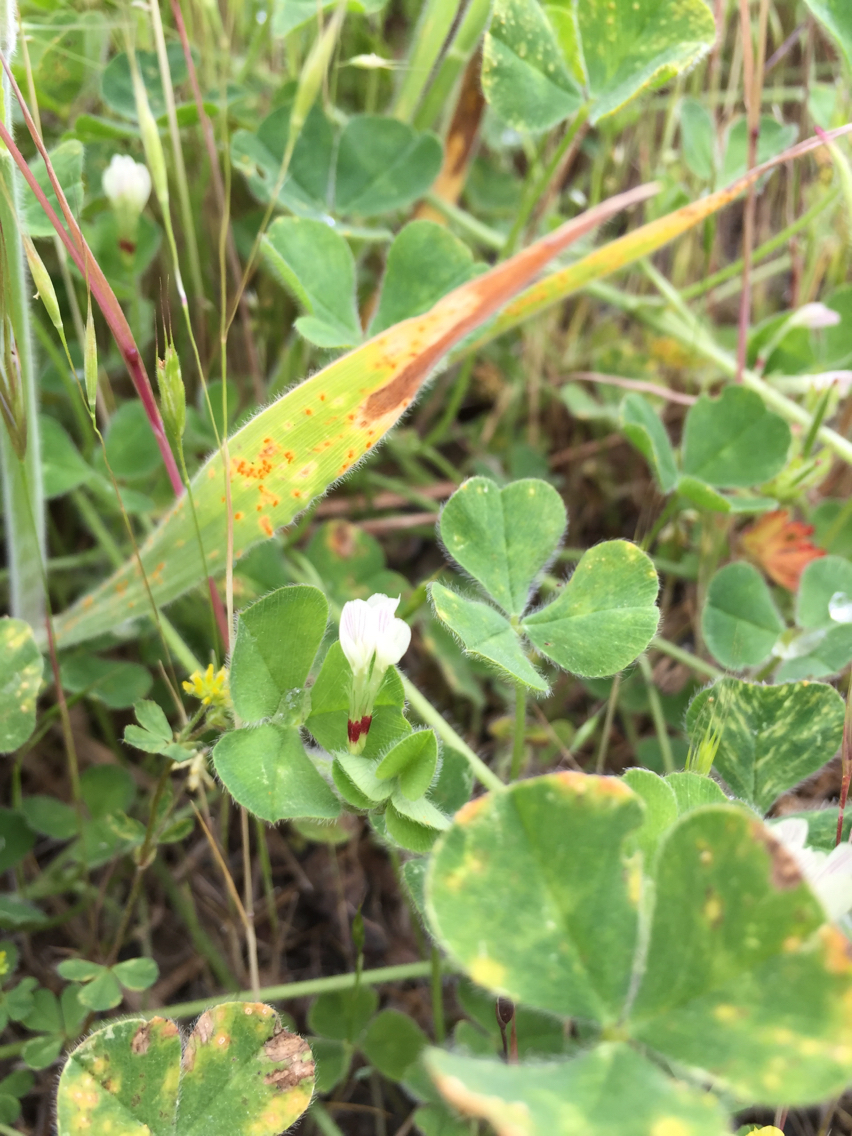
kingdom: Plantae
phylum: Tracheophyta
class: Magnoliopsida
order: Fabales
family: Fabaceae
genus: Trifolium
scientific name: Trifolium subterraneum
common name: Subterranean clover
